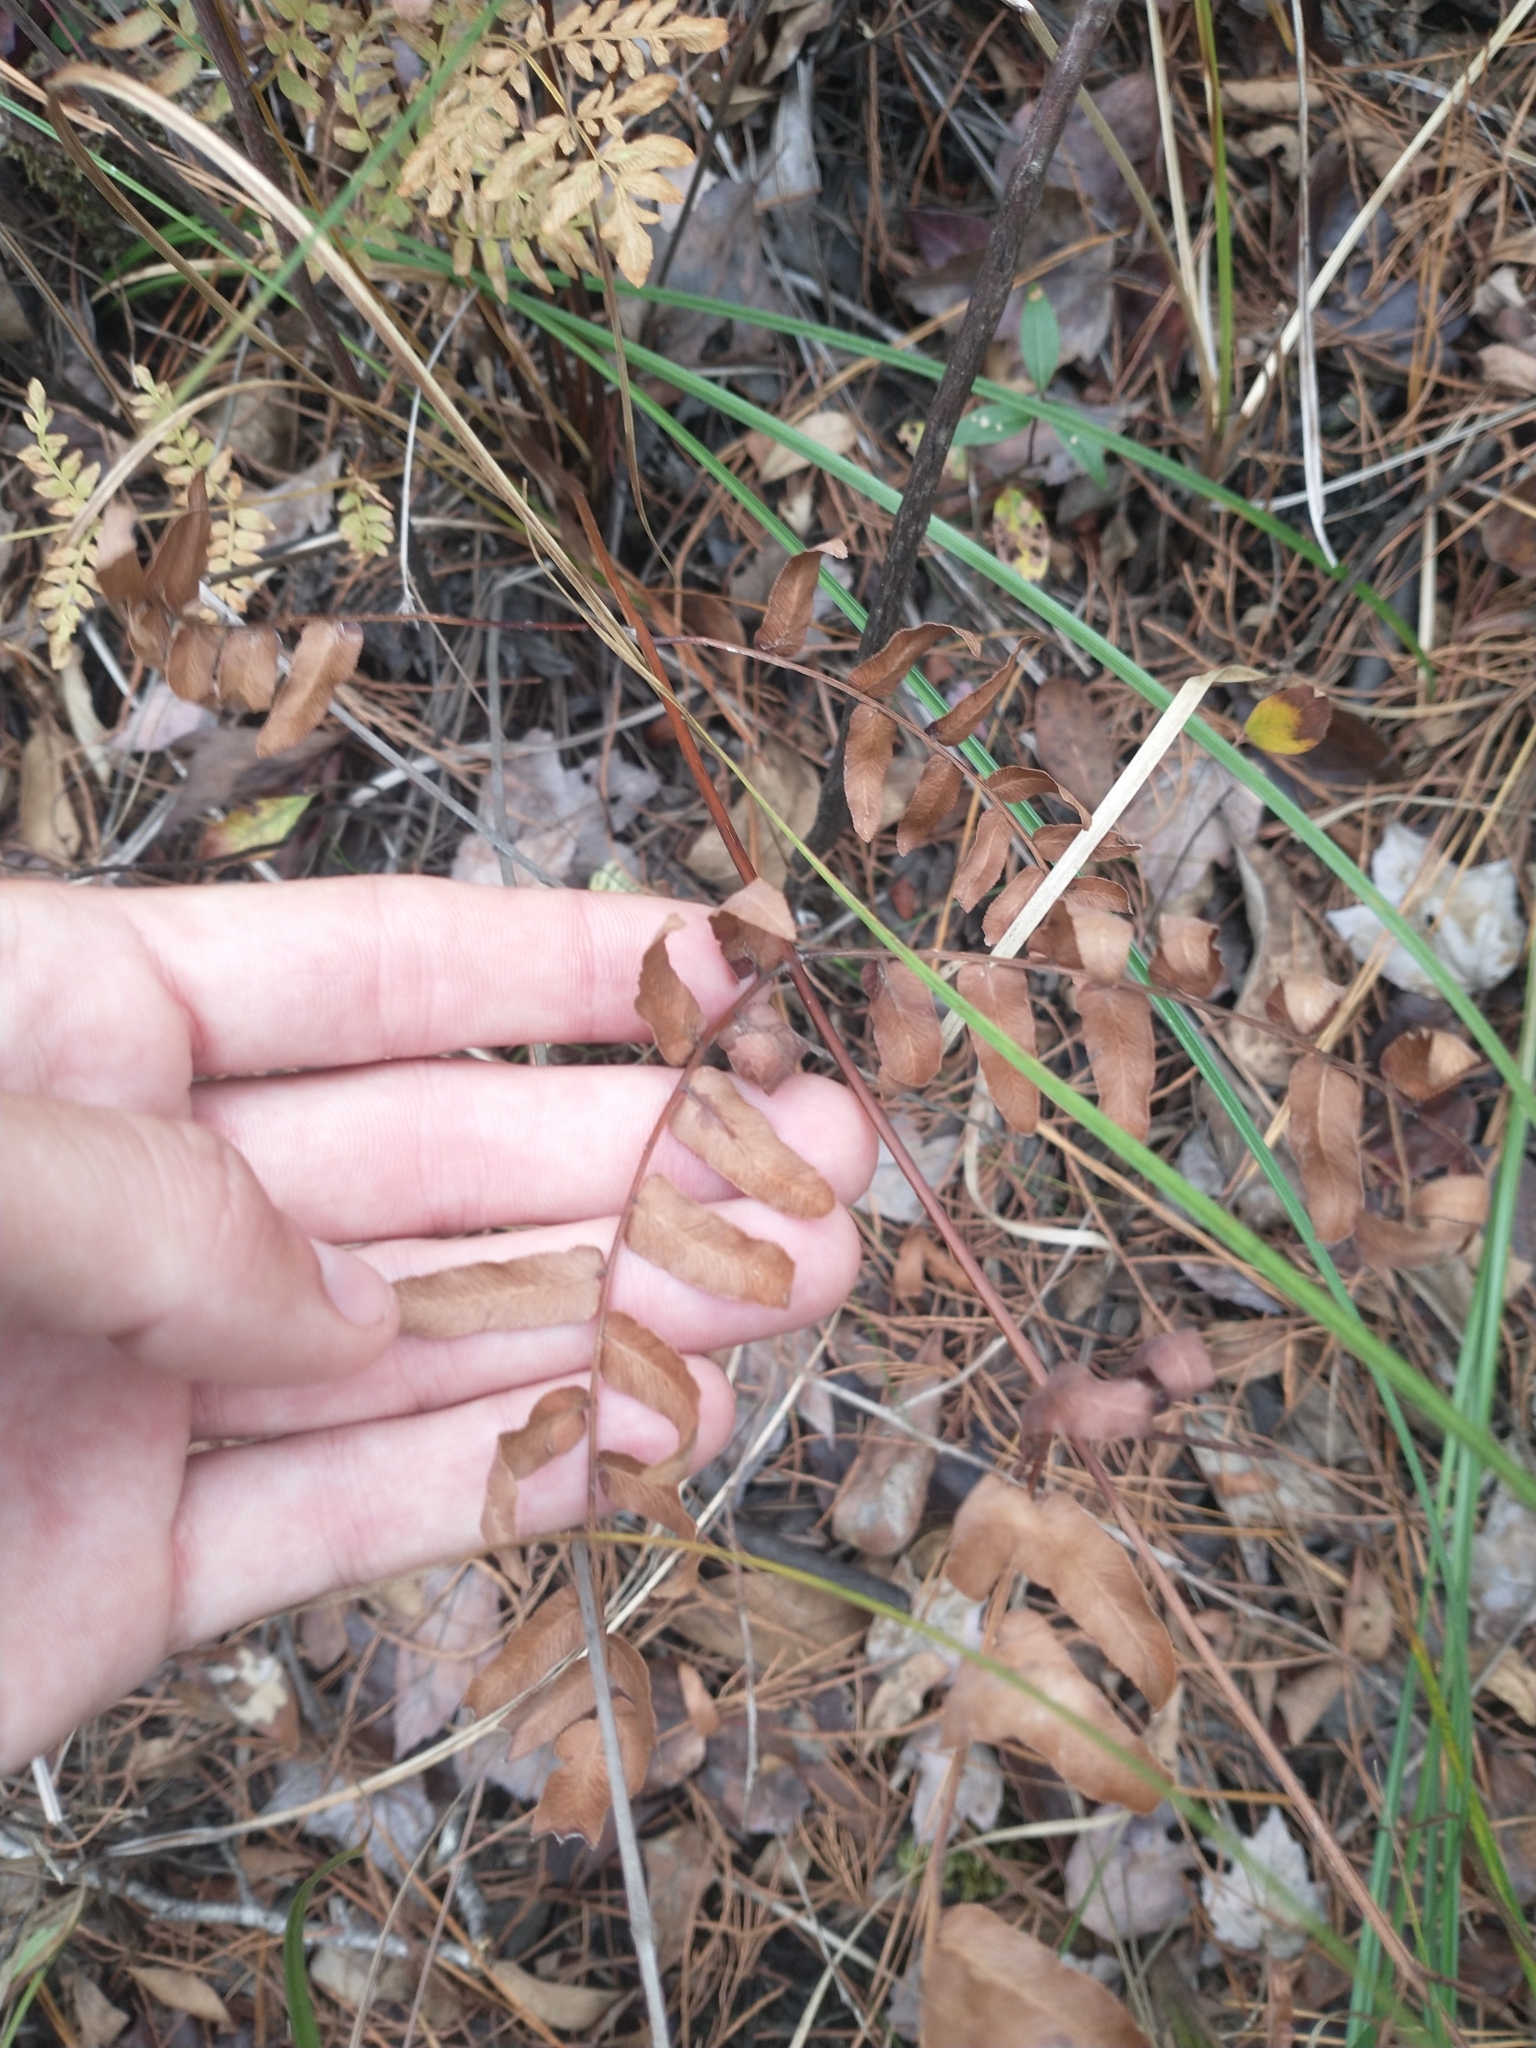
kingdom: Plantae
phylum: Tracheophyta
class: Polypodiopsida
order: Osmundales
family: Osmundaceae
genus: Osmunda
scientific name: Osmunda spectabilis
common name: American royal fern
